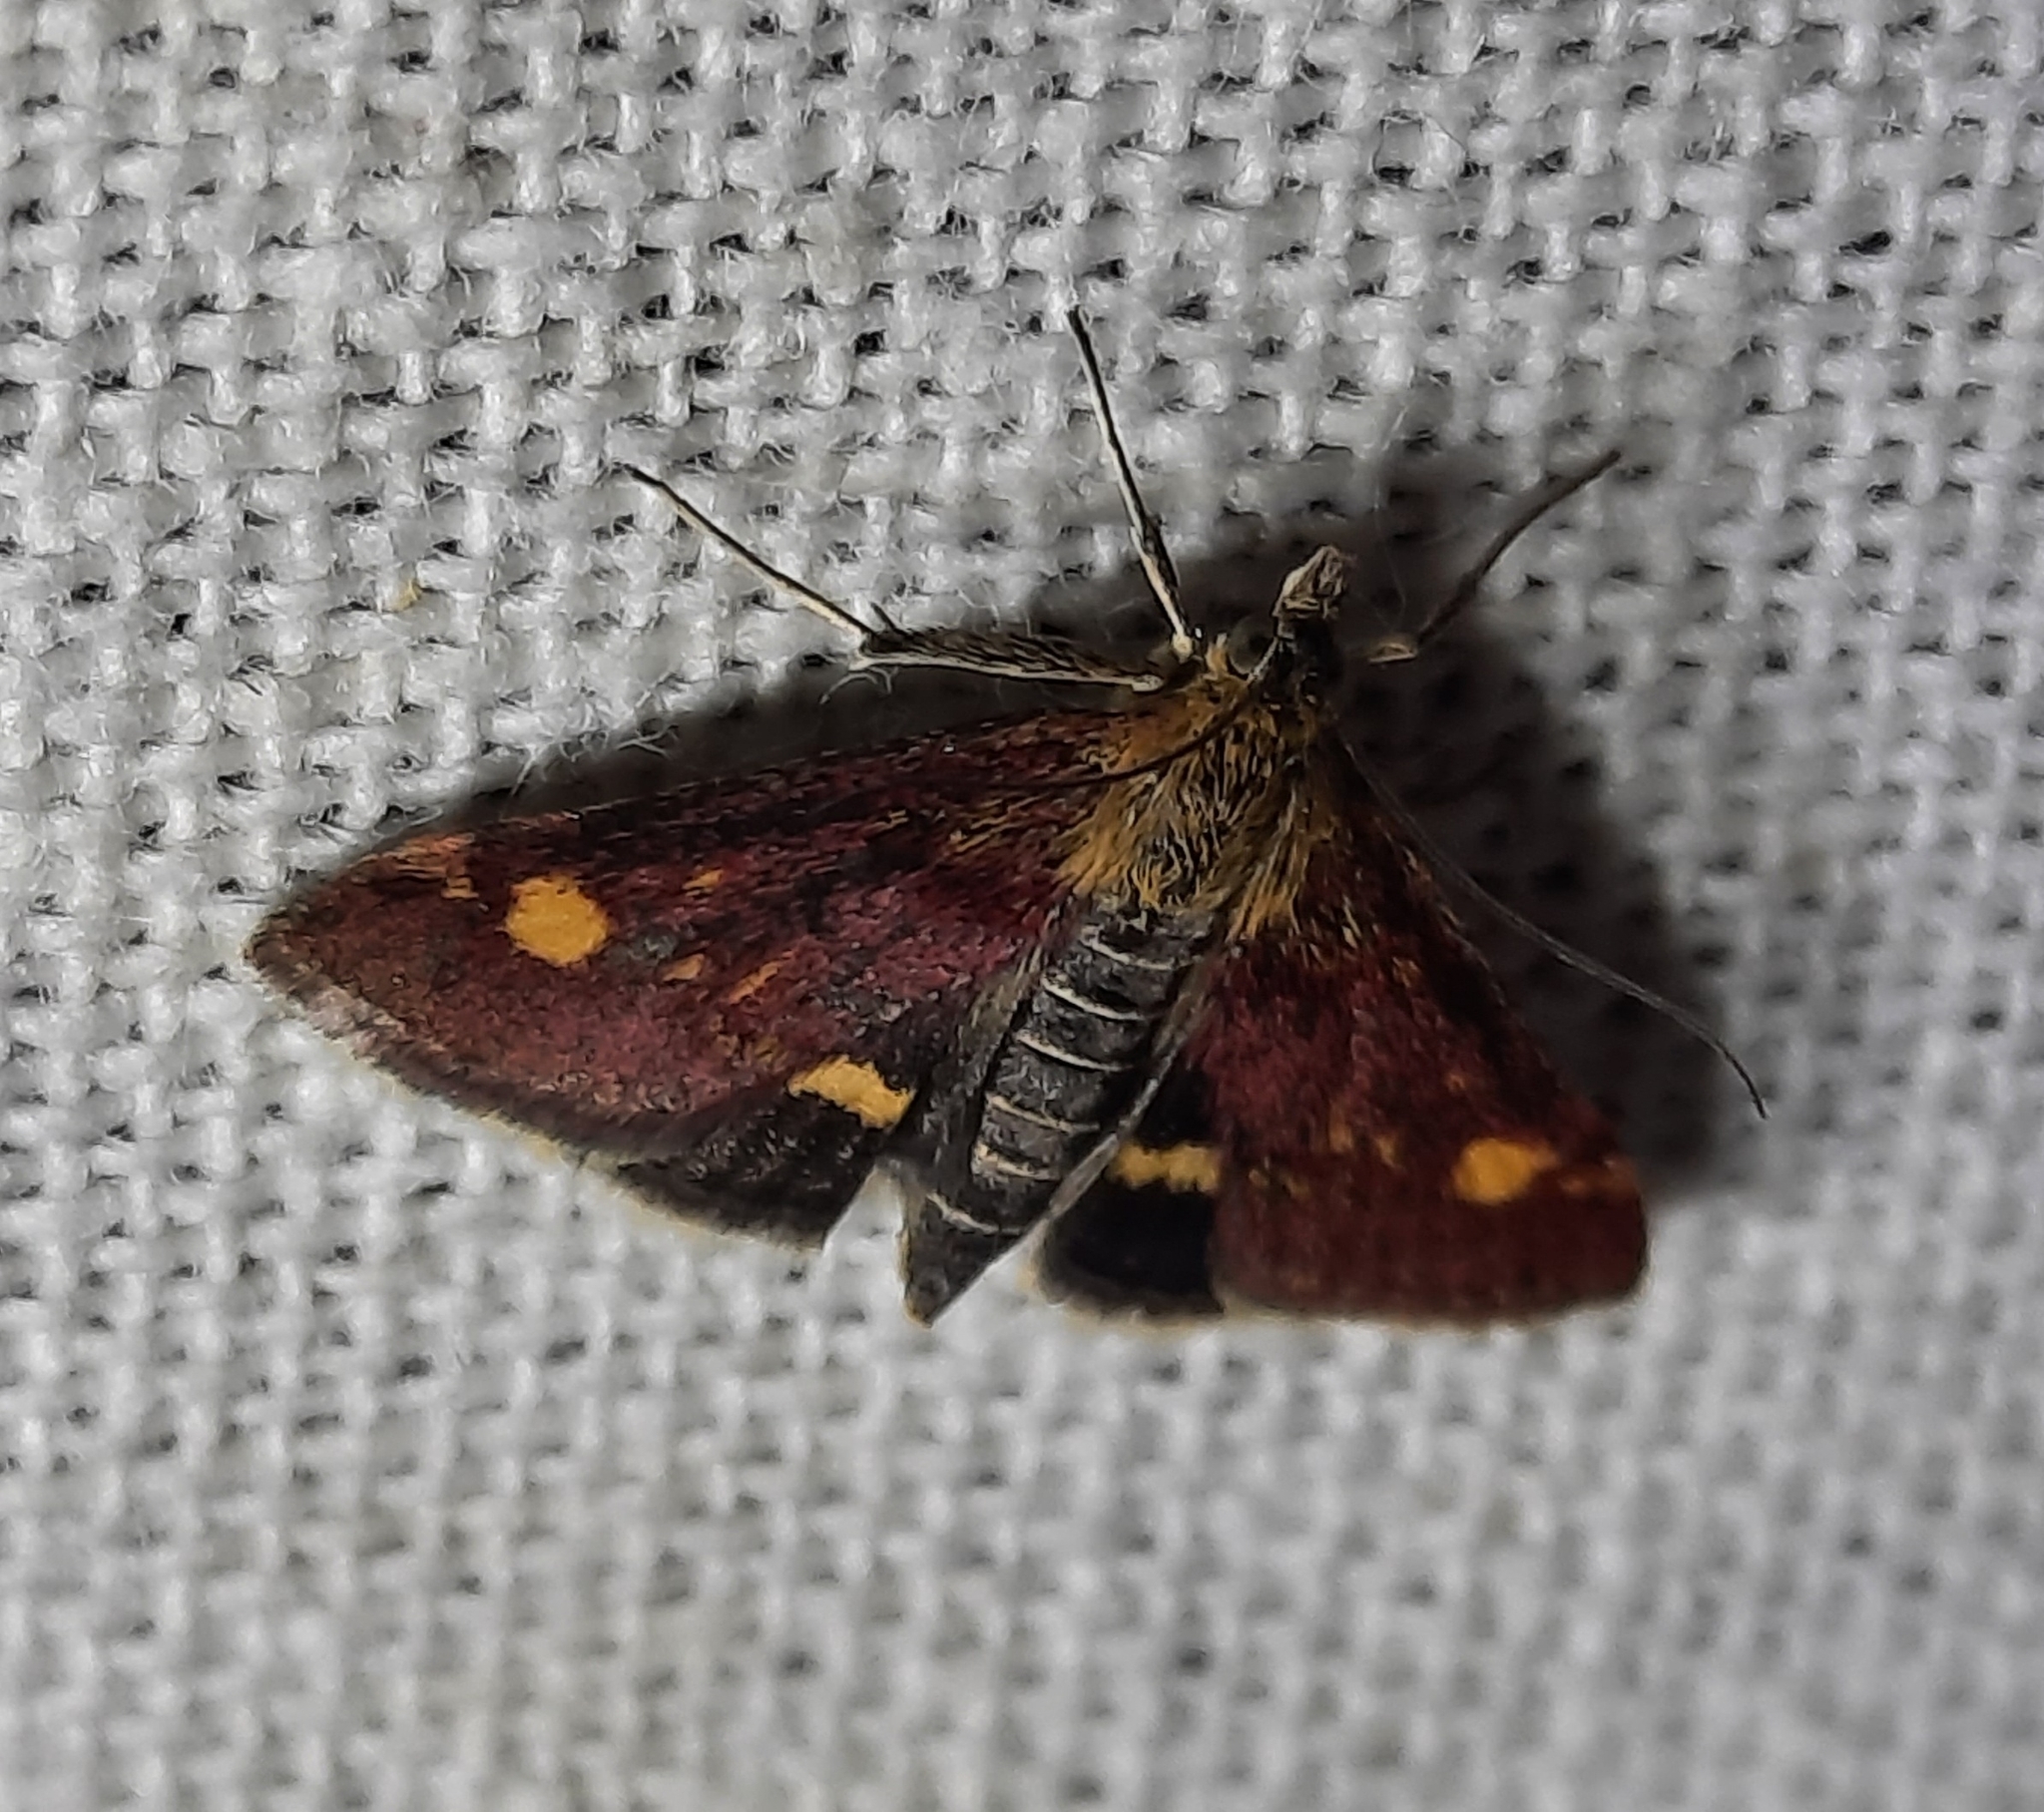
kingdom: Animalia
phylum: Arthropoda
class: Insecta
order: Lepidoptera
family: Crambidae
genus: Pyrausta
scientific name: Pyrausta aurata
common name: Small purple & gold
